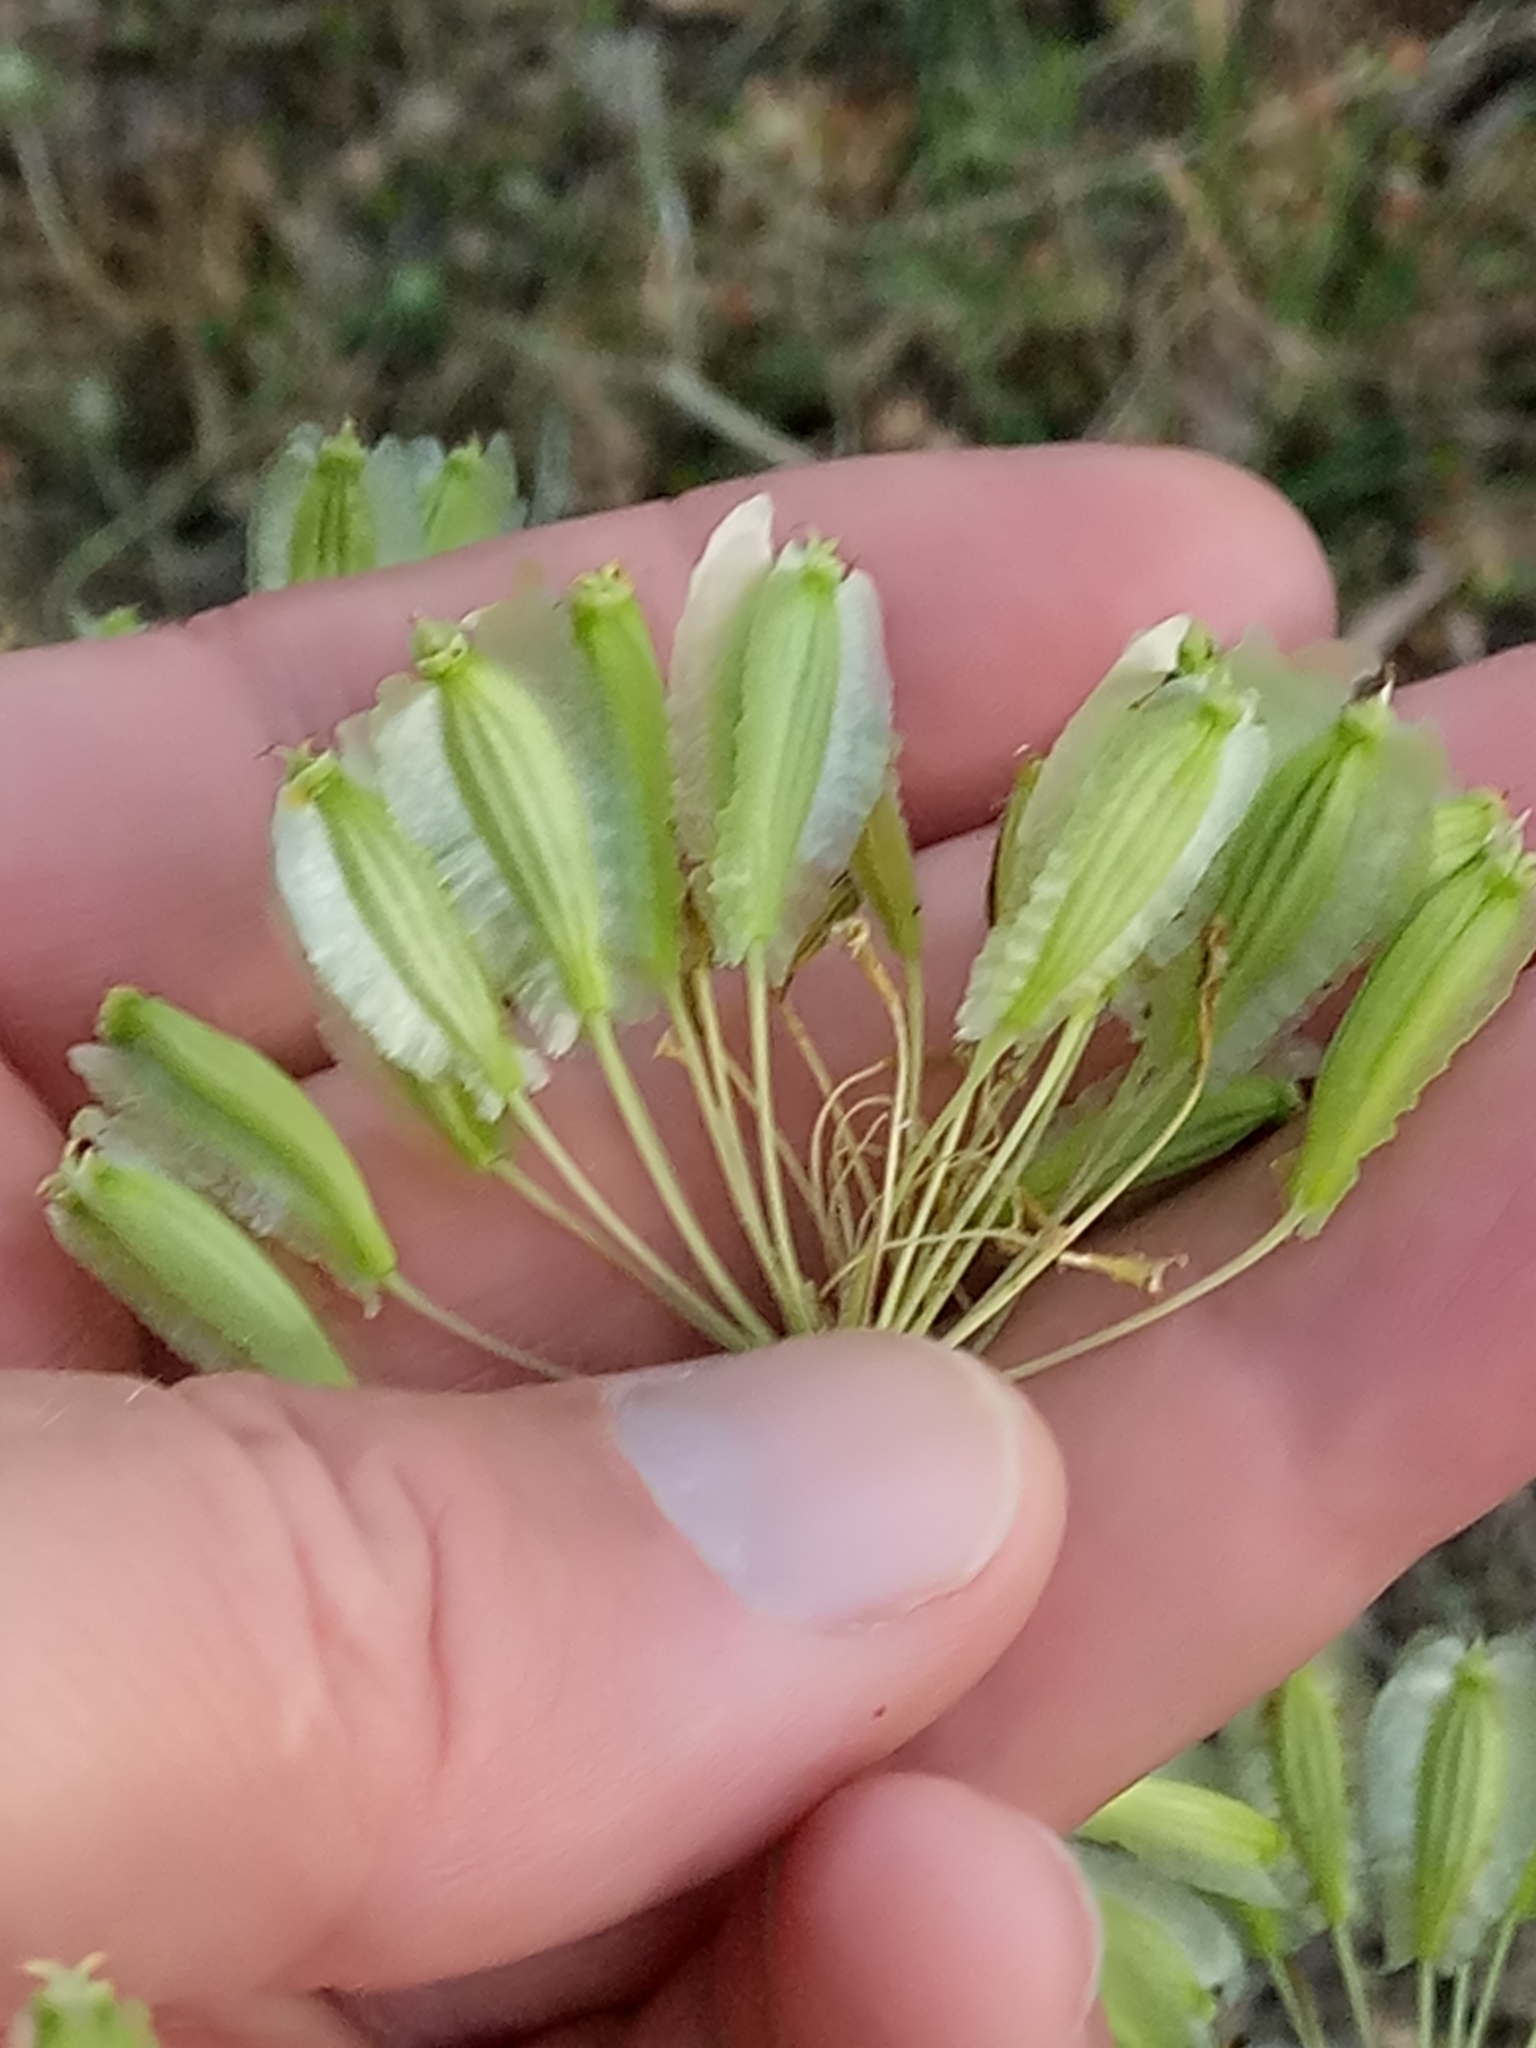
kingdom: Plantae
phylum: Tracheophyta
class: Magnoliopsida
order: Apiales
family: Apiaceae
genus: Thapsia
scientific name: Thapsia garganica
